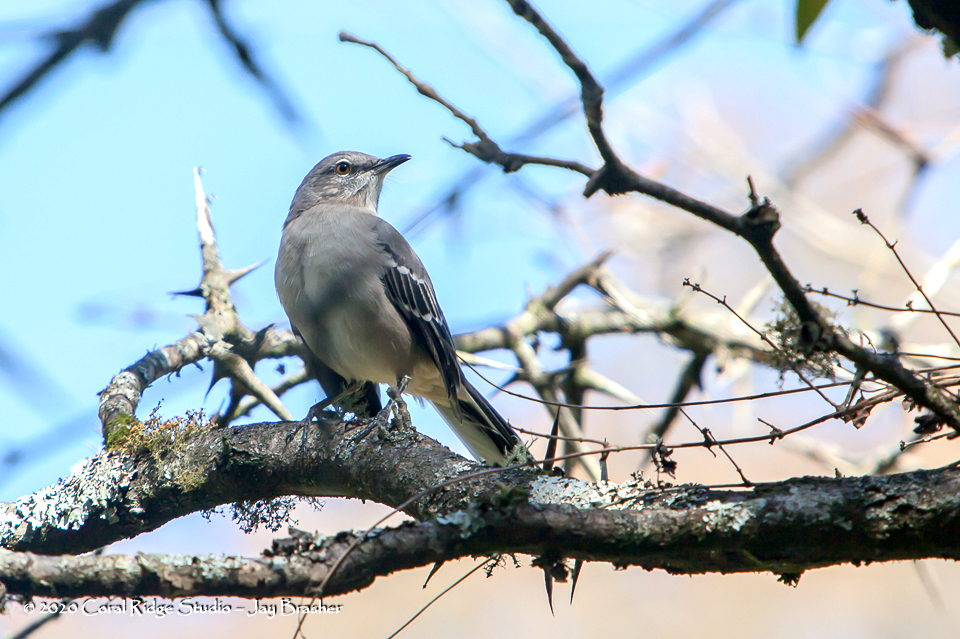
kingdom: Animalia
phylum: Chordata
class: Aves
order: Passeriformes
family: Mimidae
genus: Mimus
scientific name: Mimus polyglottos
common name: Northern mockingbird
